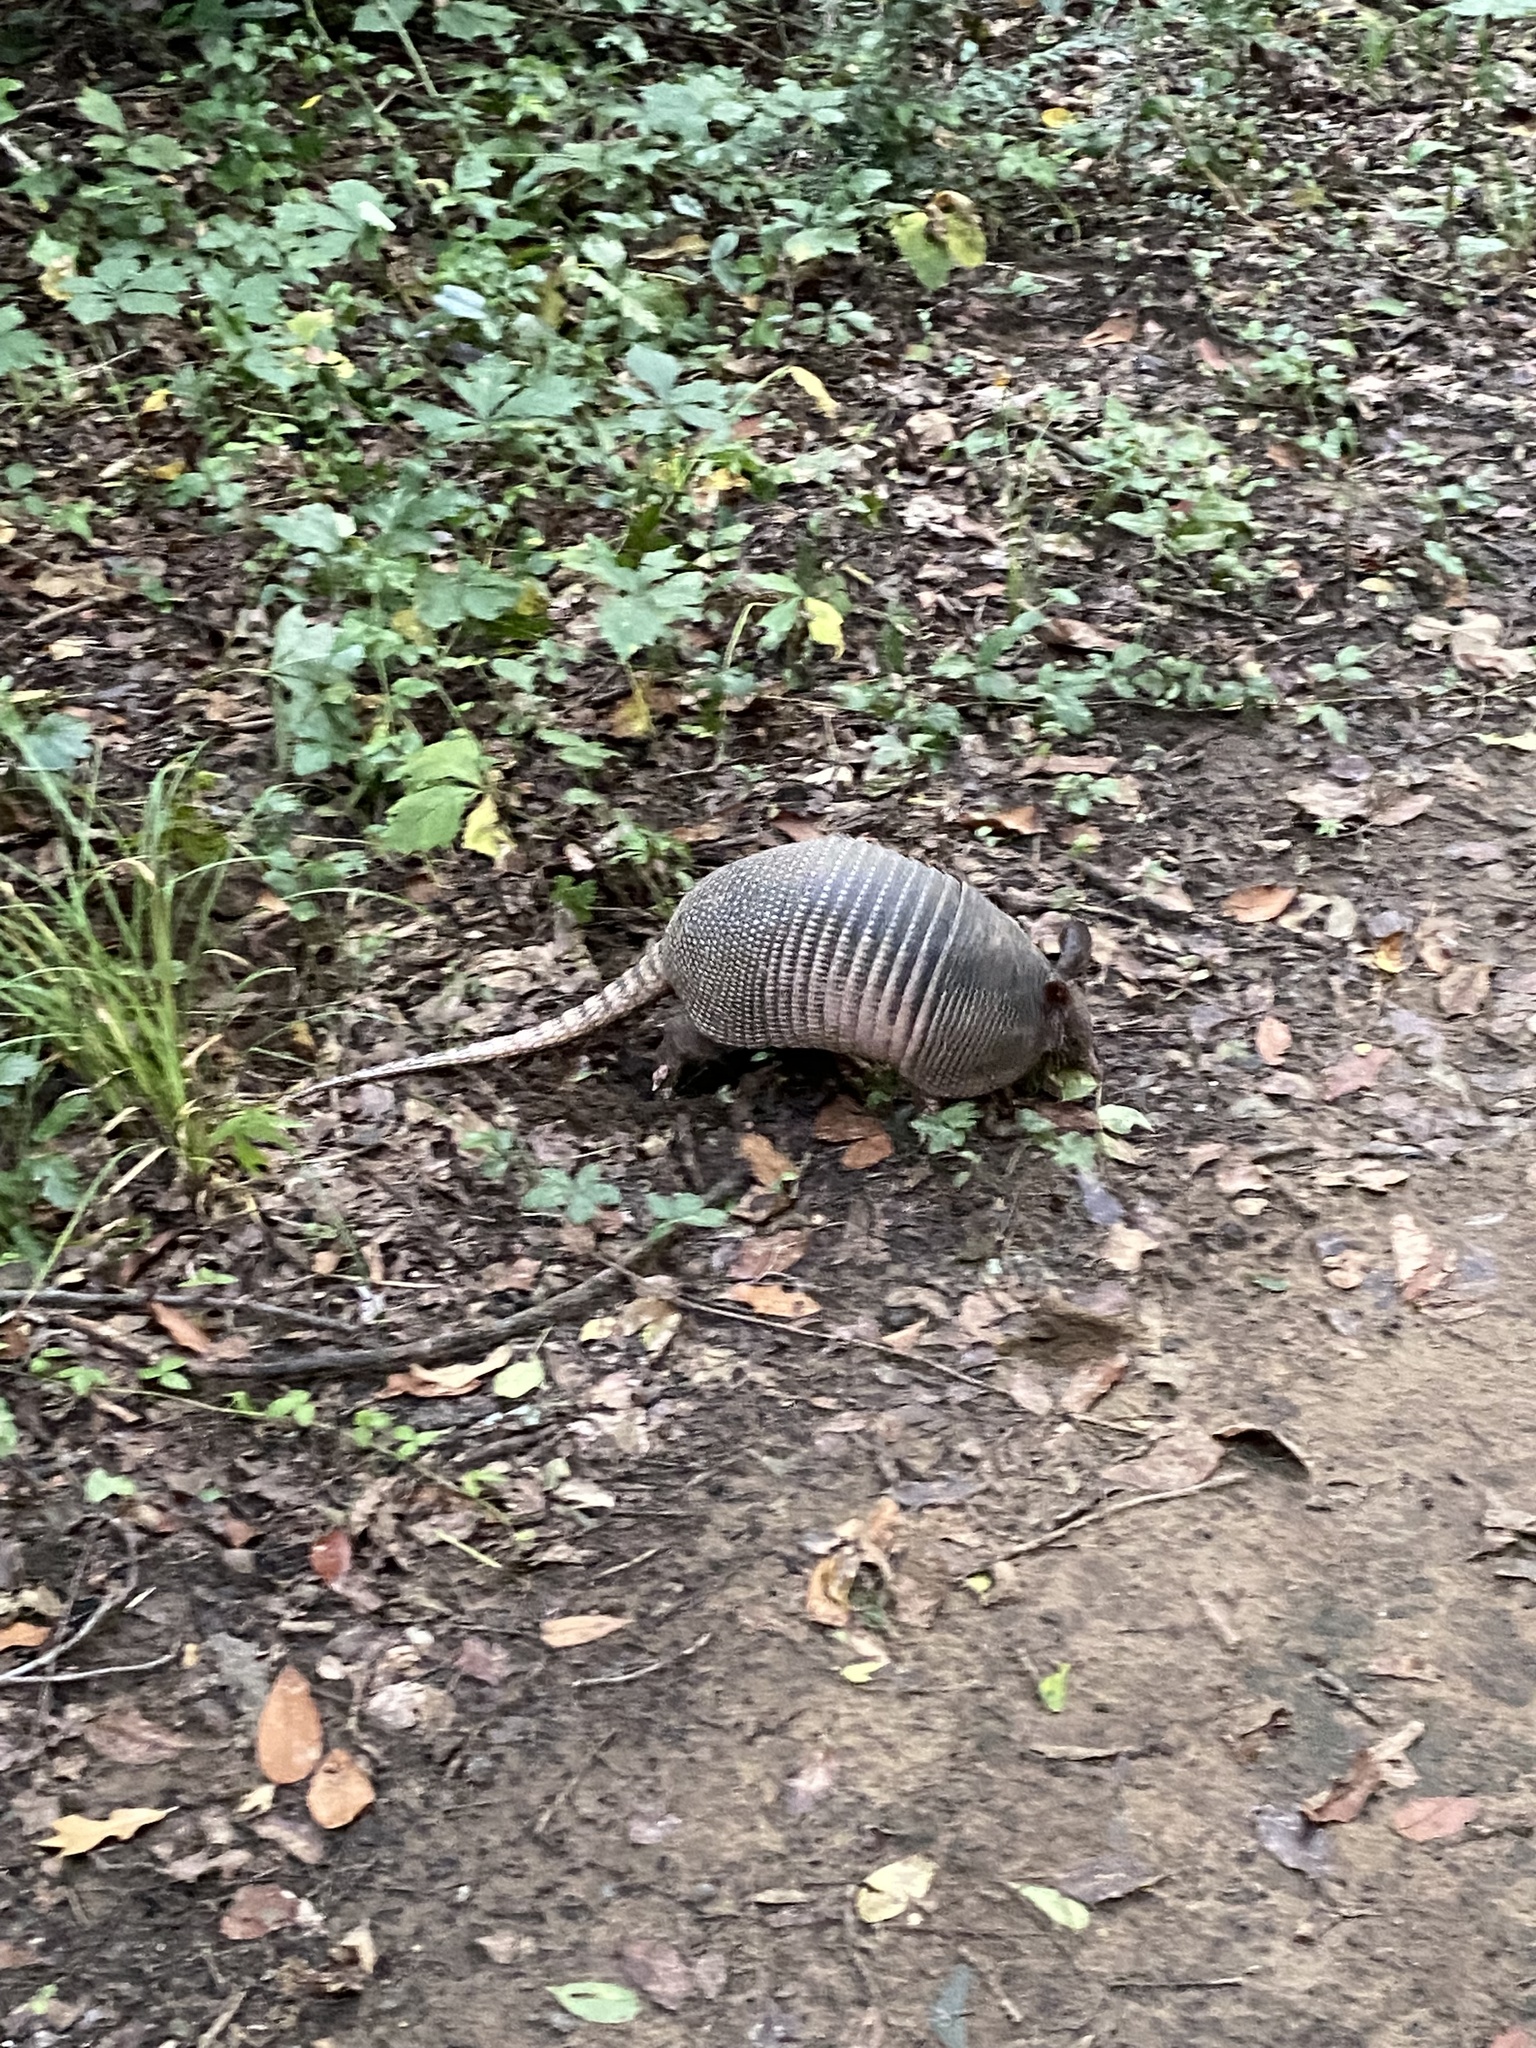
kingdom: Animalia
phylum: Chordata
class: Mammalia
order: Cingulata
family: Dasypodidae
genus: Dasypus
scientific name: Dasypus novemcinctus
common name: Nine-banded armadillo
